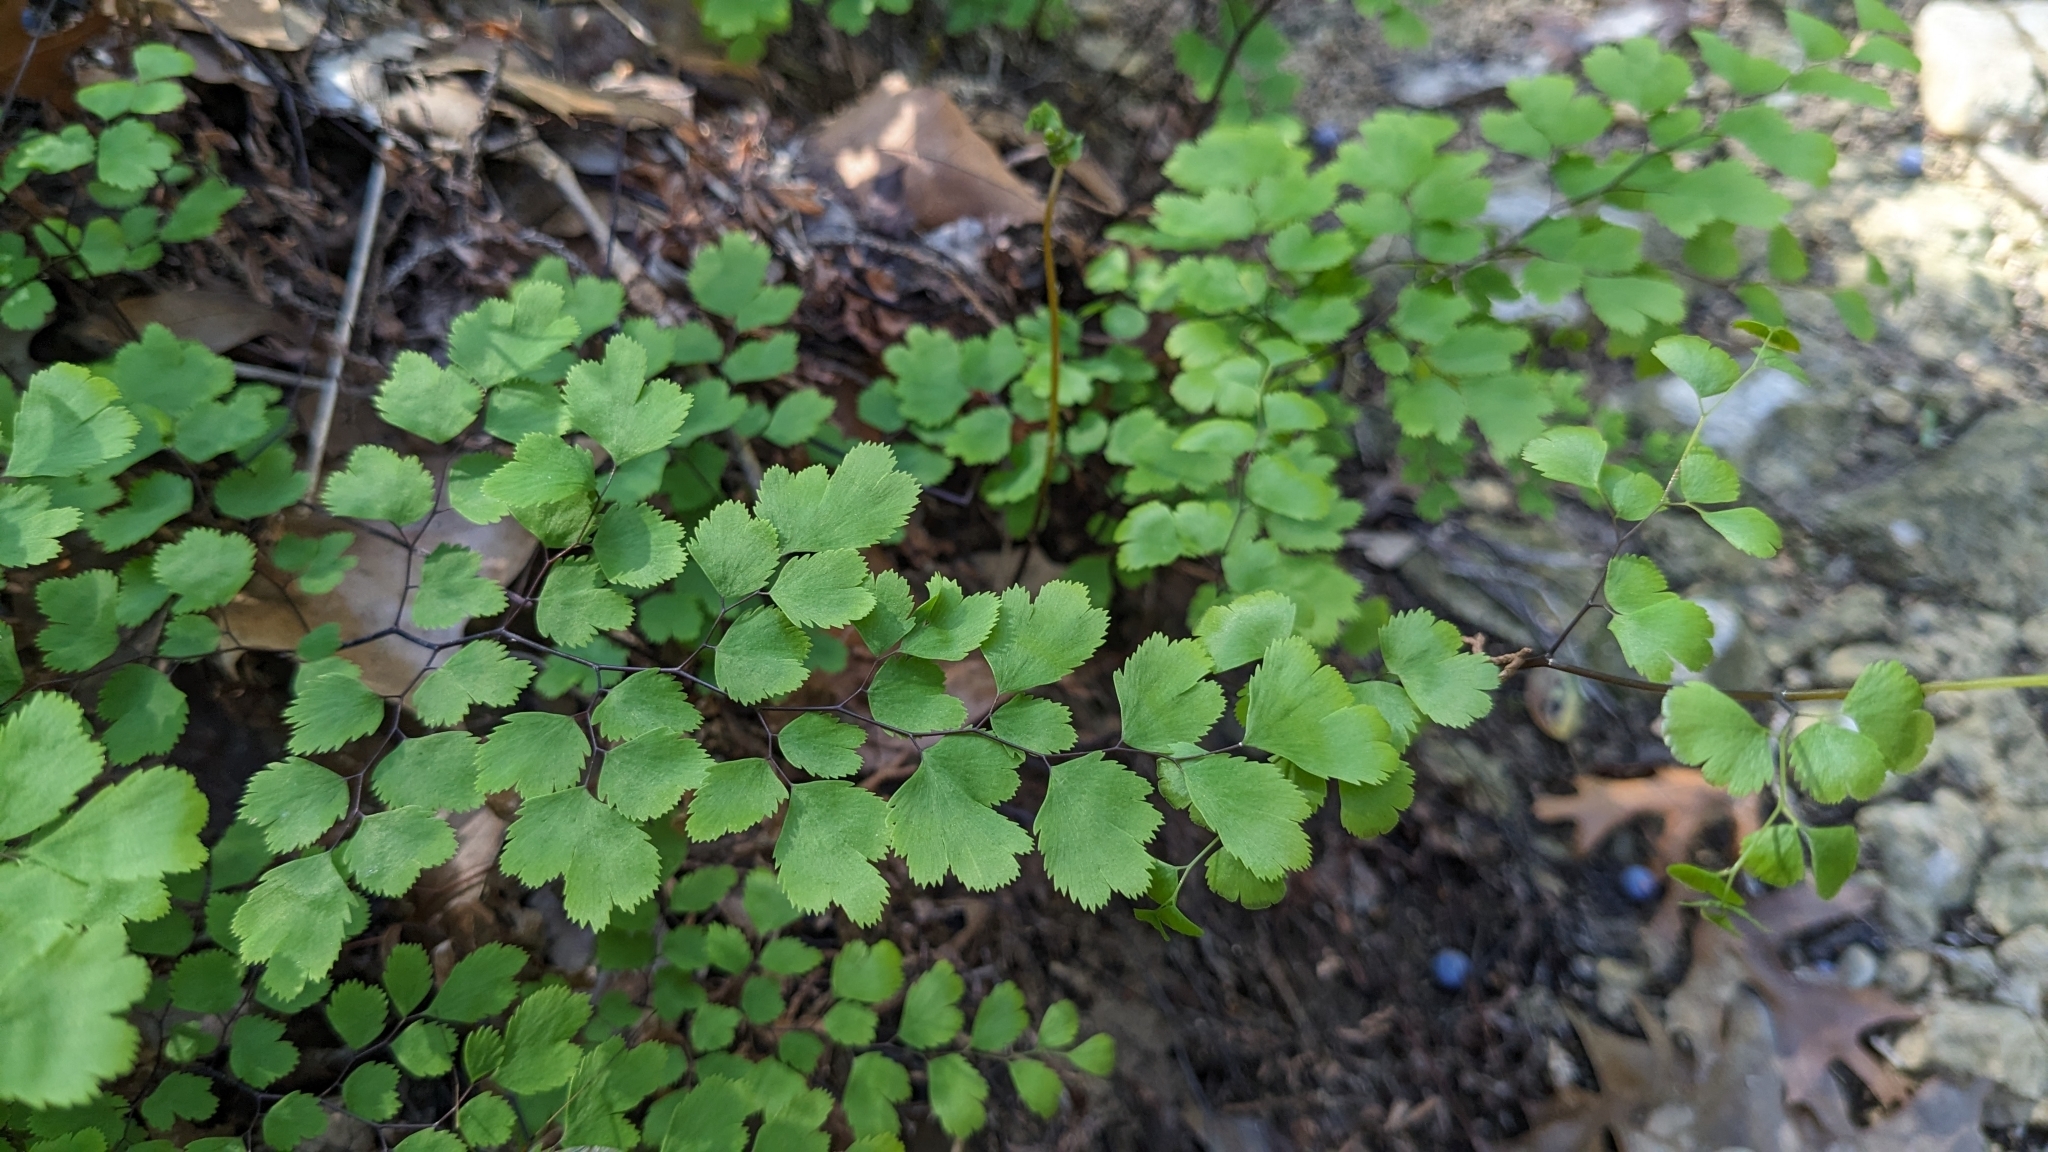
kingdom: Plantae
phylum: Tracheophyta
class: Polypodiopsida
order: Polypodiales
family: Pteridaceae
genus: Adiantum
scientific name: Adiantum capillus-veneris
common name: Maidenhair fern
